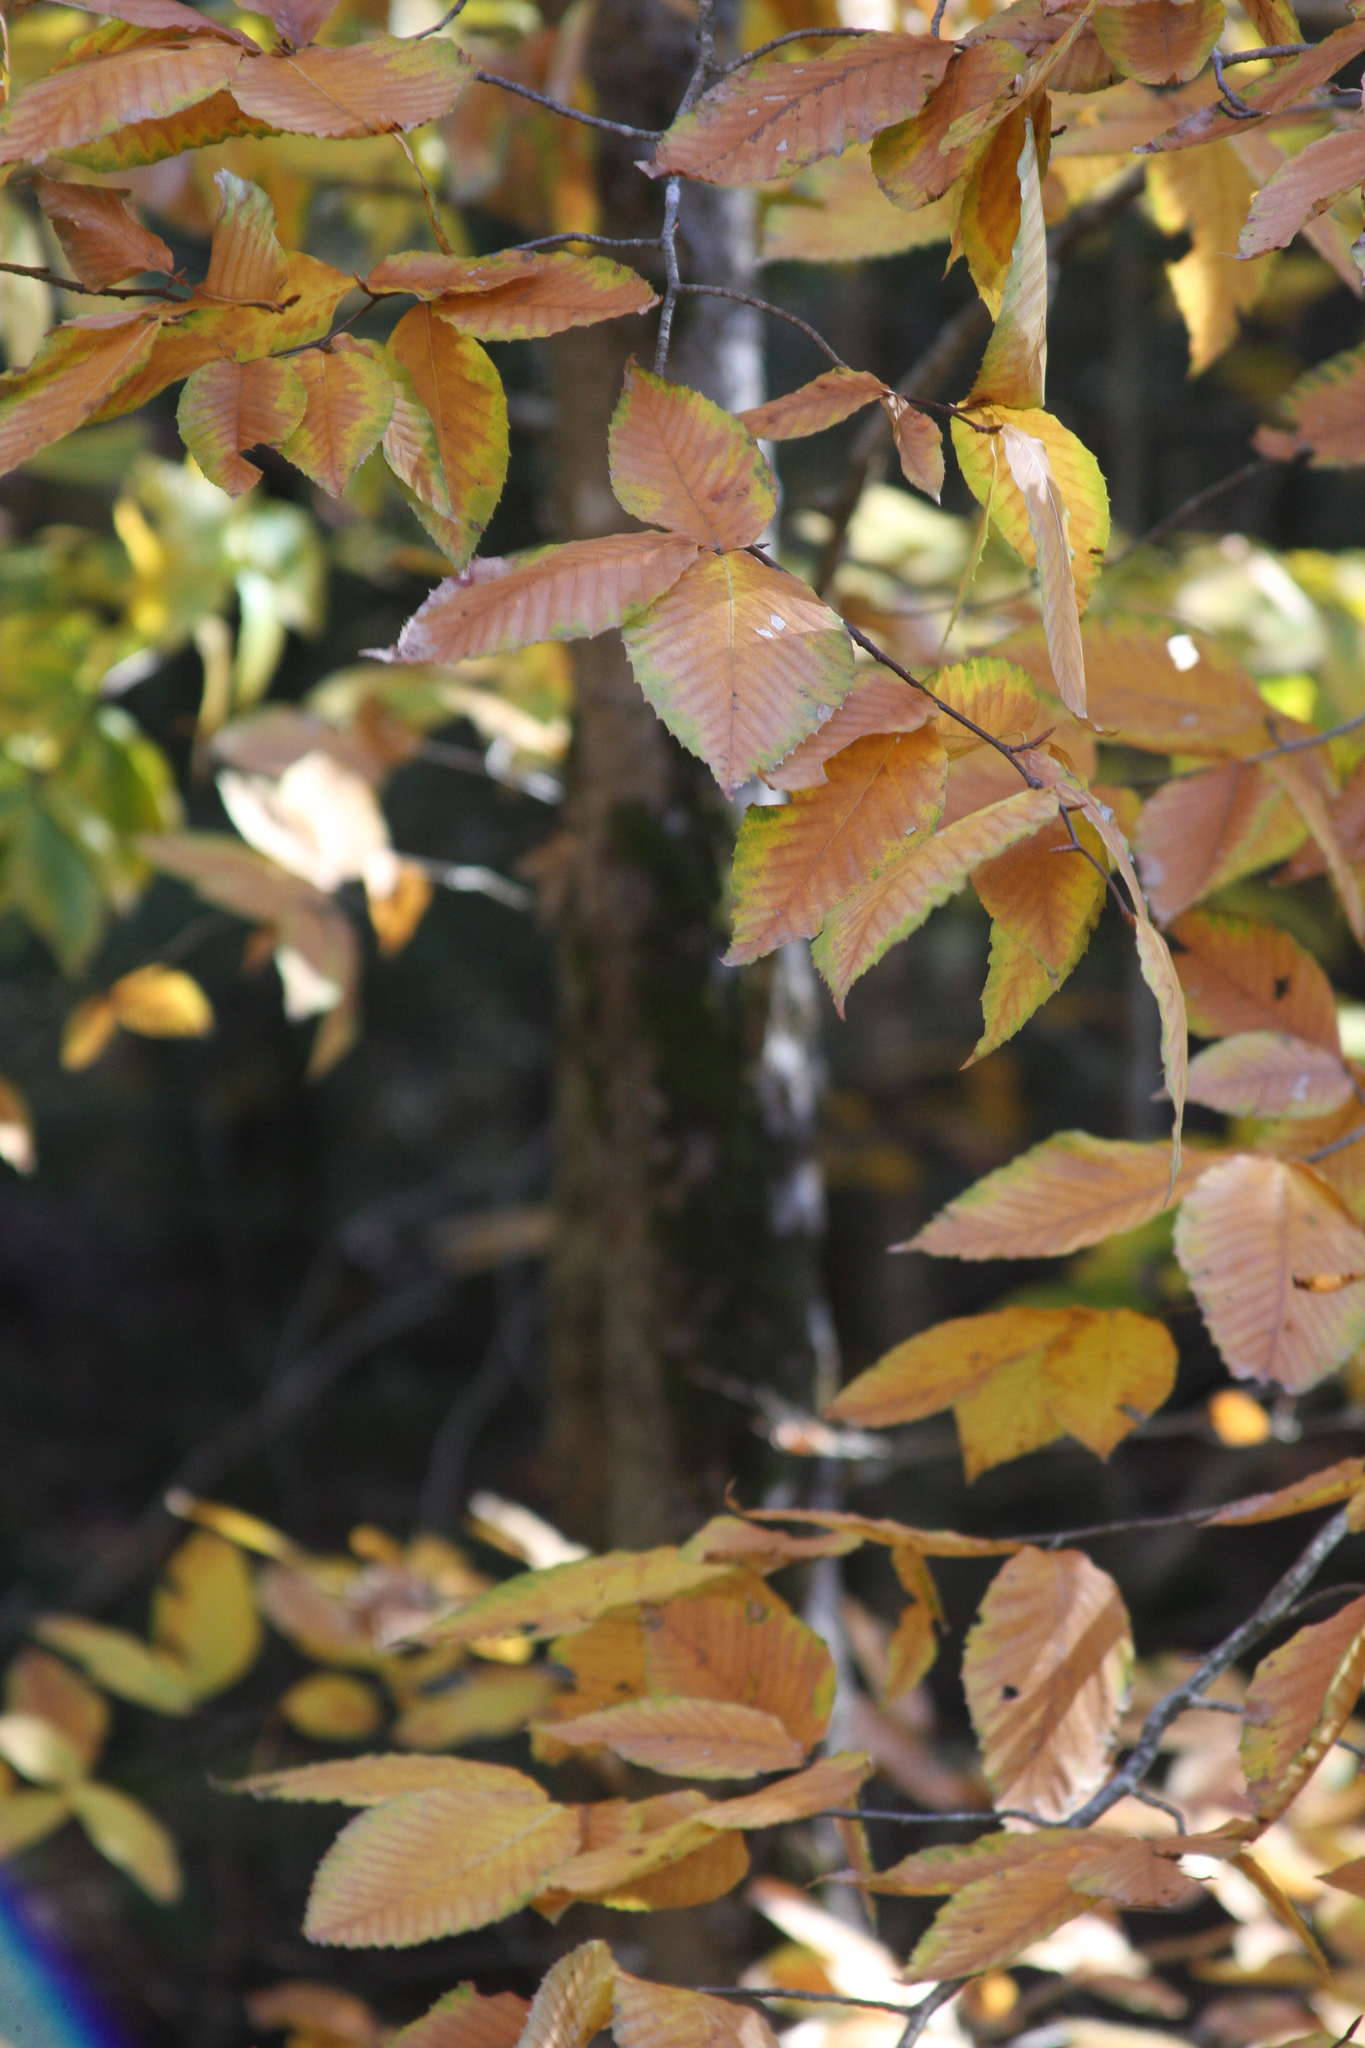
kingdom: Plantae
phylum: Tracheophyta
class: Magnoliopsida
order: Fagales
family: Fagaceae
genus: Fagus
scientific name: Fagus grandifolia
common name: American beech
